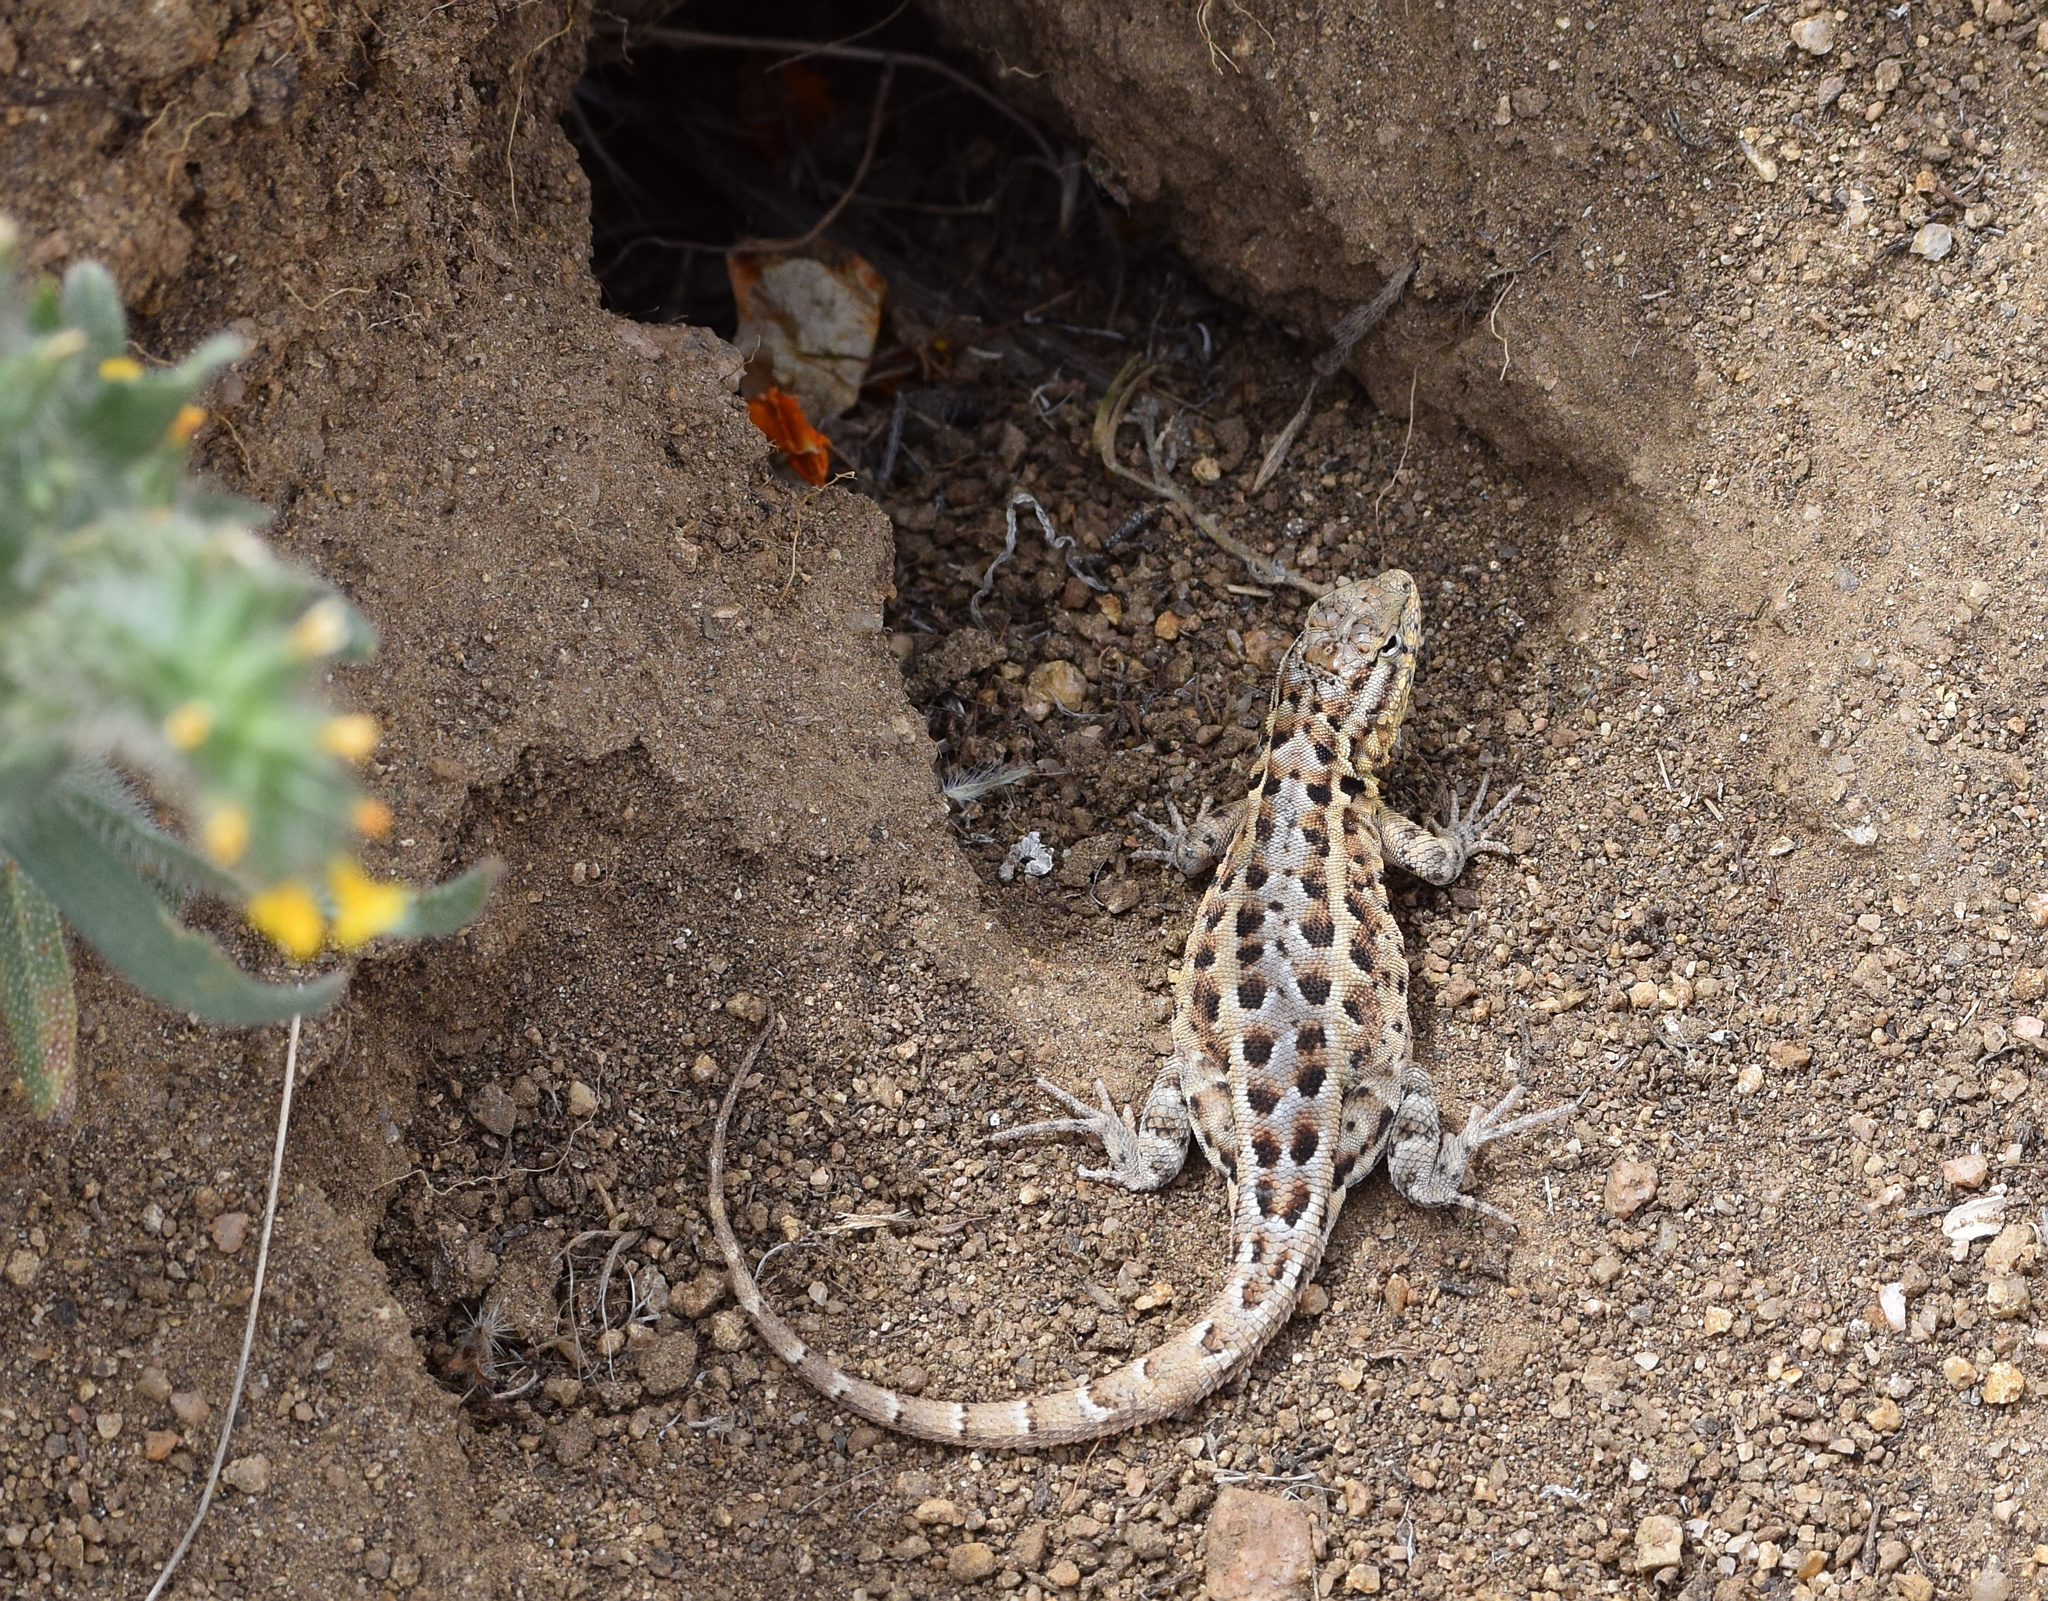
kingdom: Animalia
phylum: Chordata
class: Squamata
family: Phrynosomatidae
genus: Uta
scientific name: Uta stansburiana
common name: Side-blotched lizard
